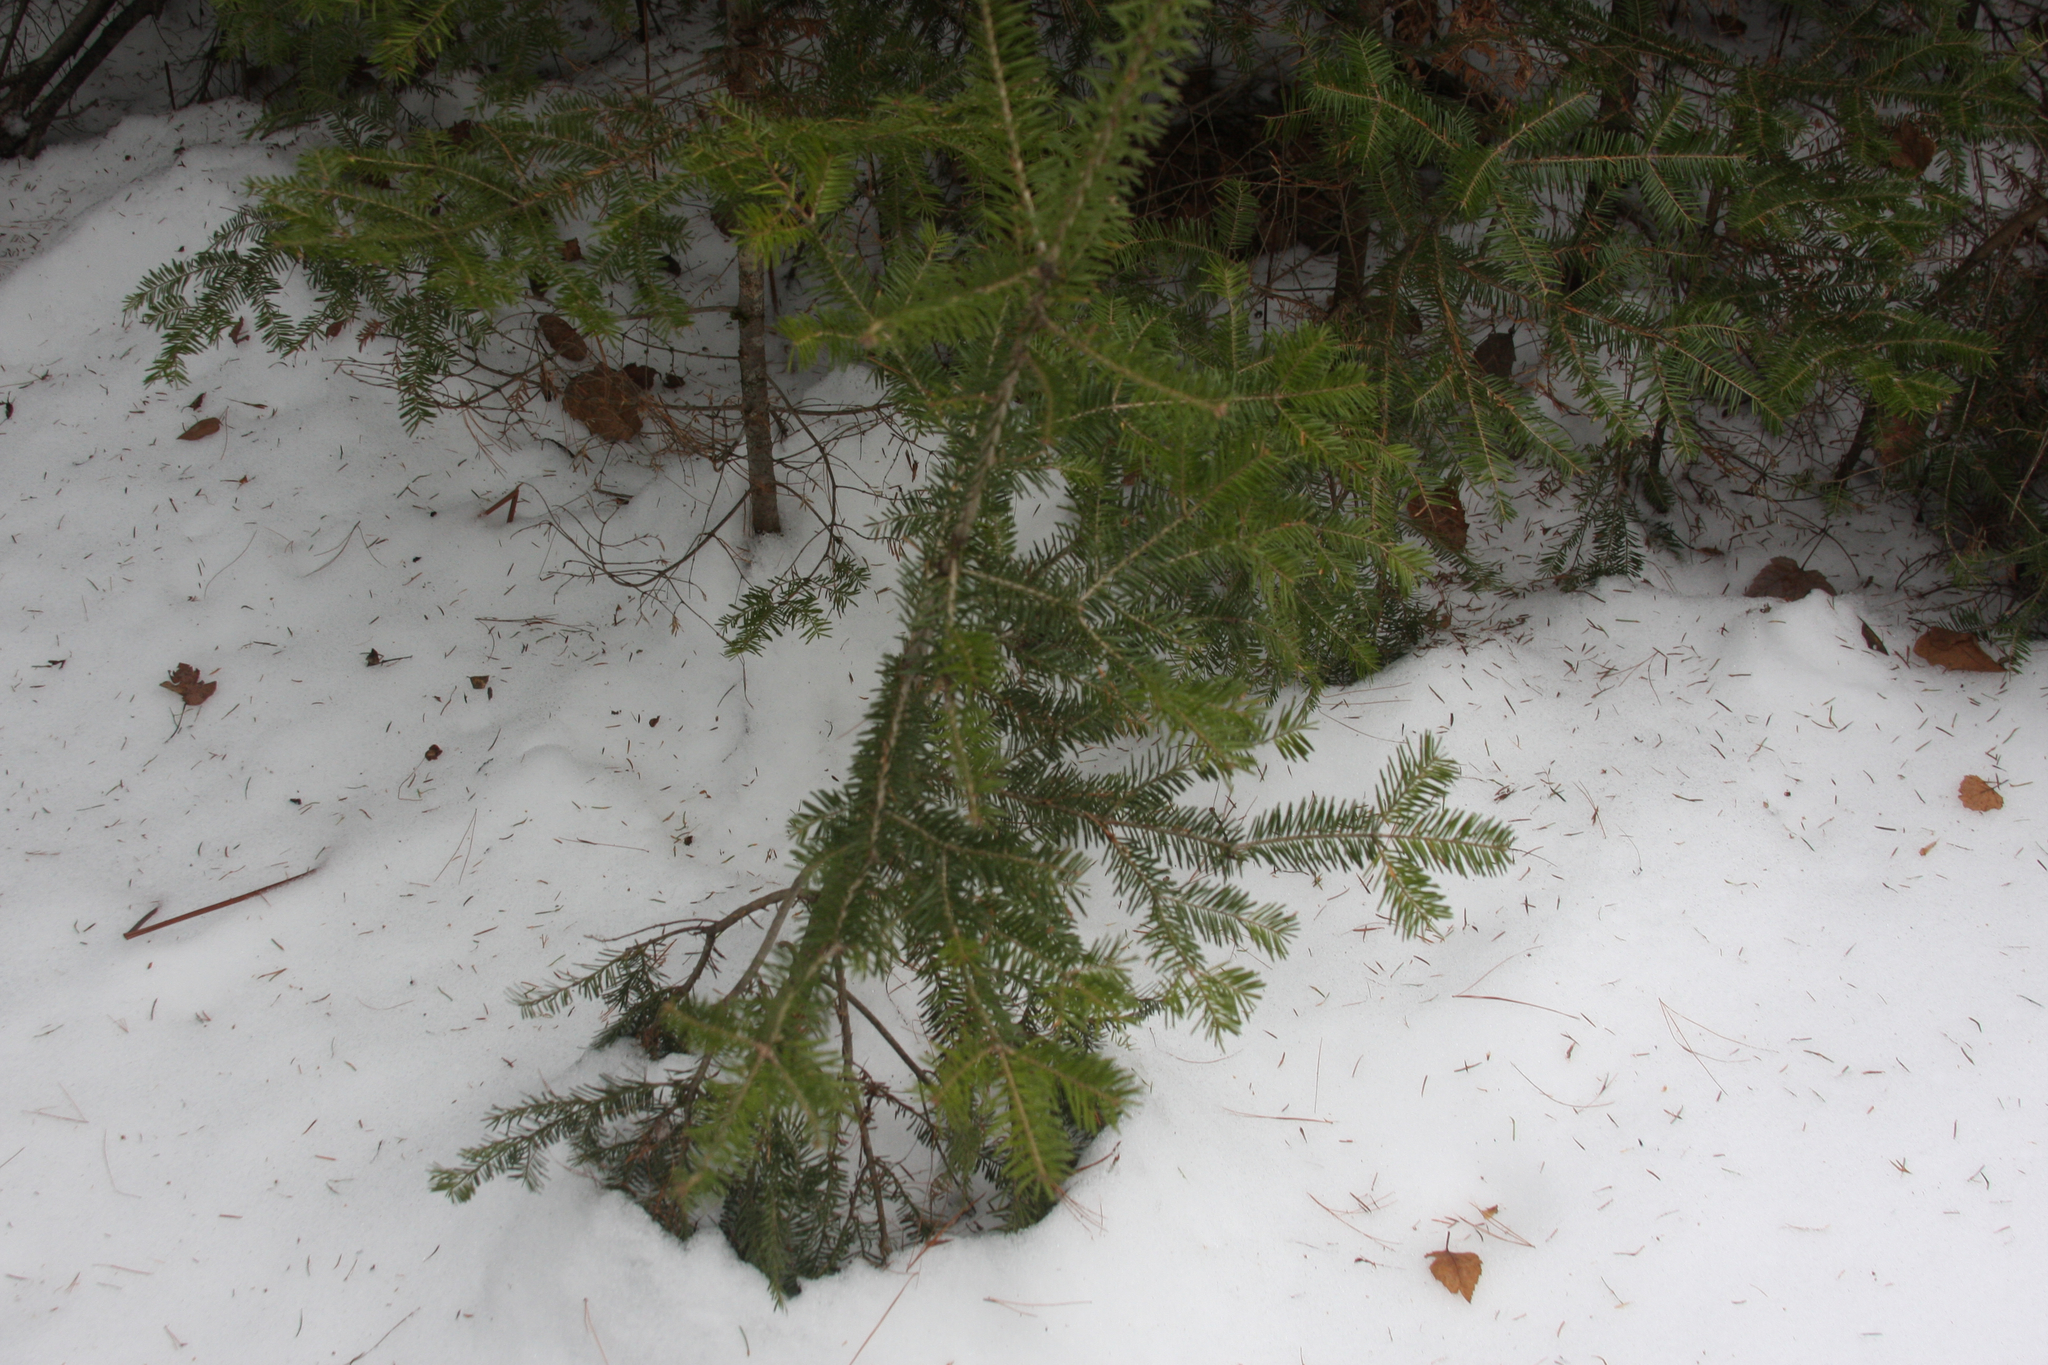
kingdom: Plantae
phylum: Tracheophyta
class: Pinopsida
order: Pinales
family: Pinaceae
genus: Abies
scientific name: Abies balsamea
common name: Balsam fir
